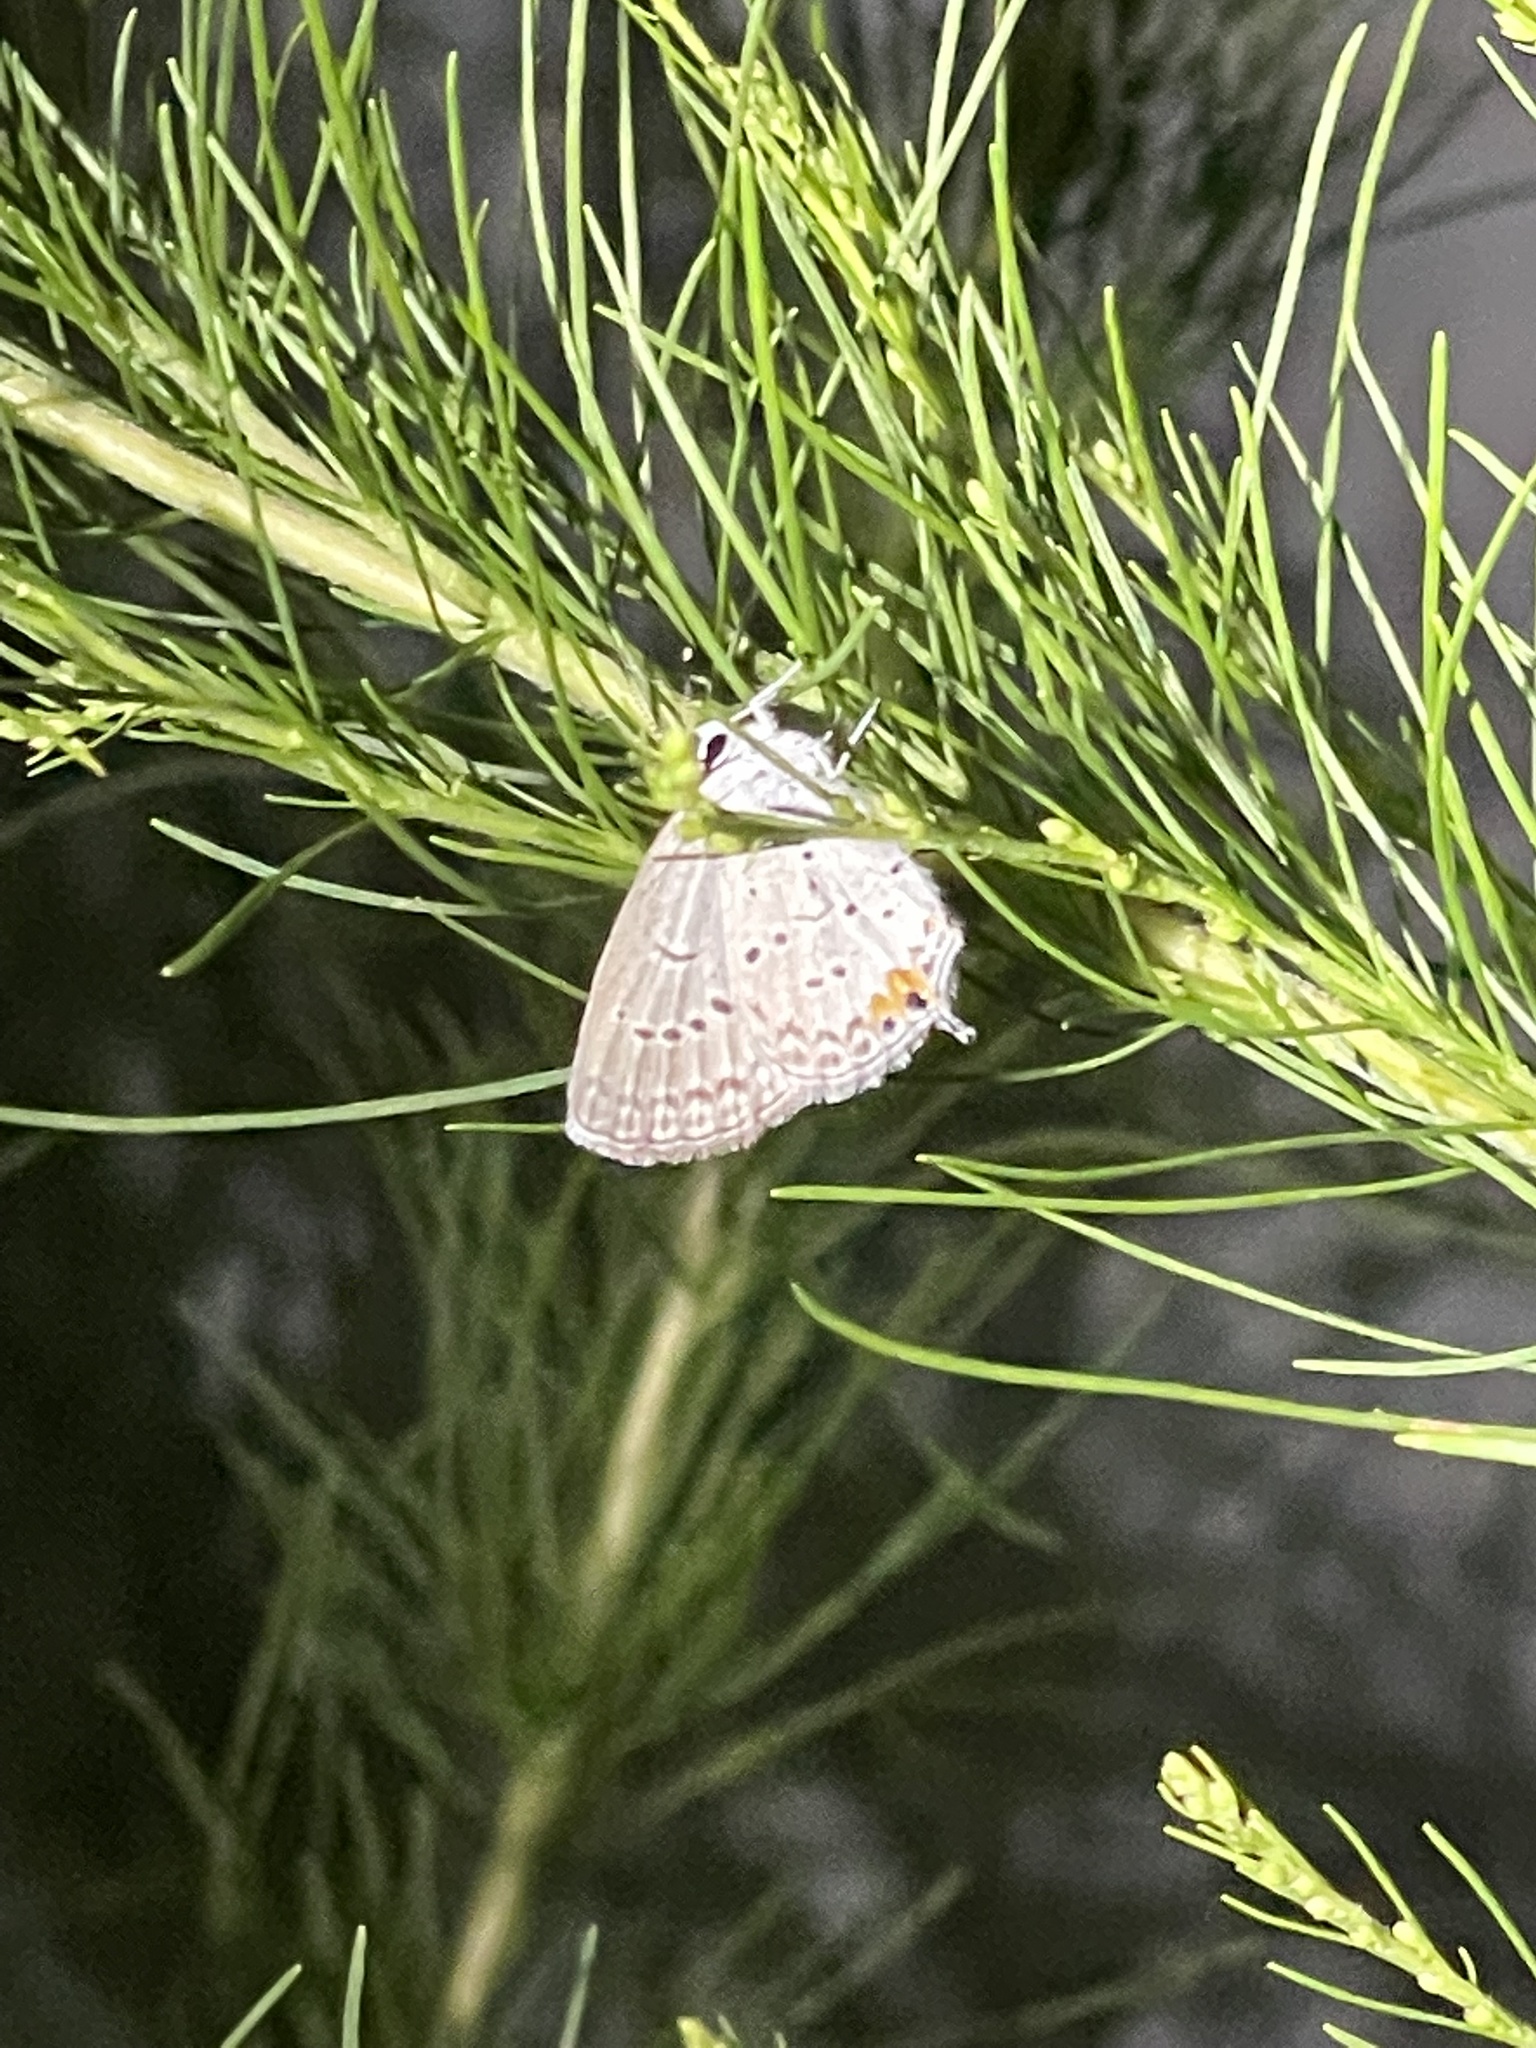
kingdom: Animalia
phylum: Arthropoda
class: Insecta
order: Lepidoptera
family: Lycaenidae
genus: Elkalyce
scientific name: Elkalyce comyntas
